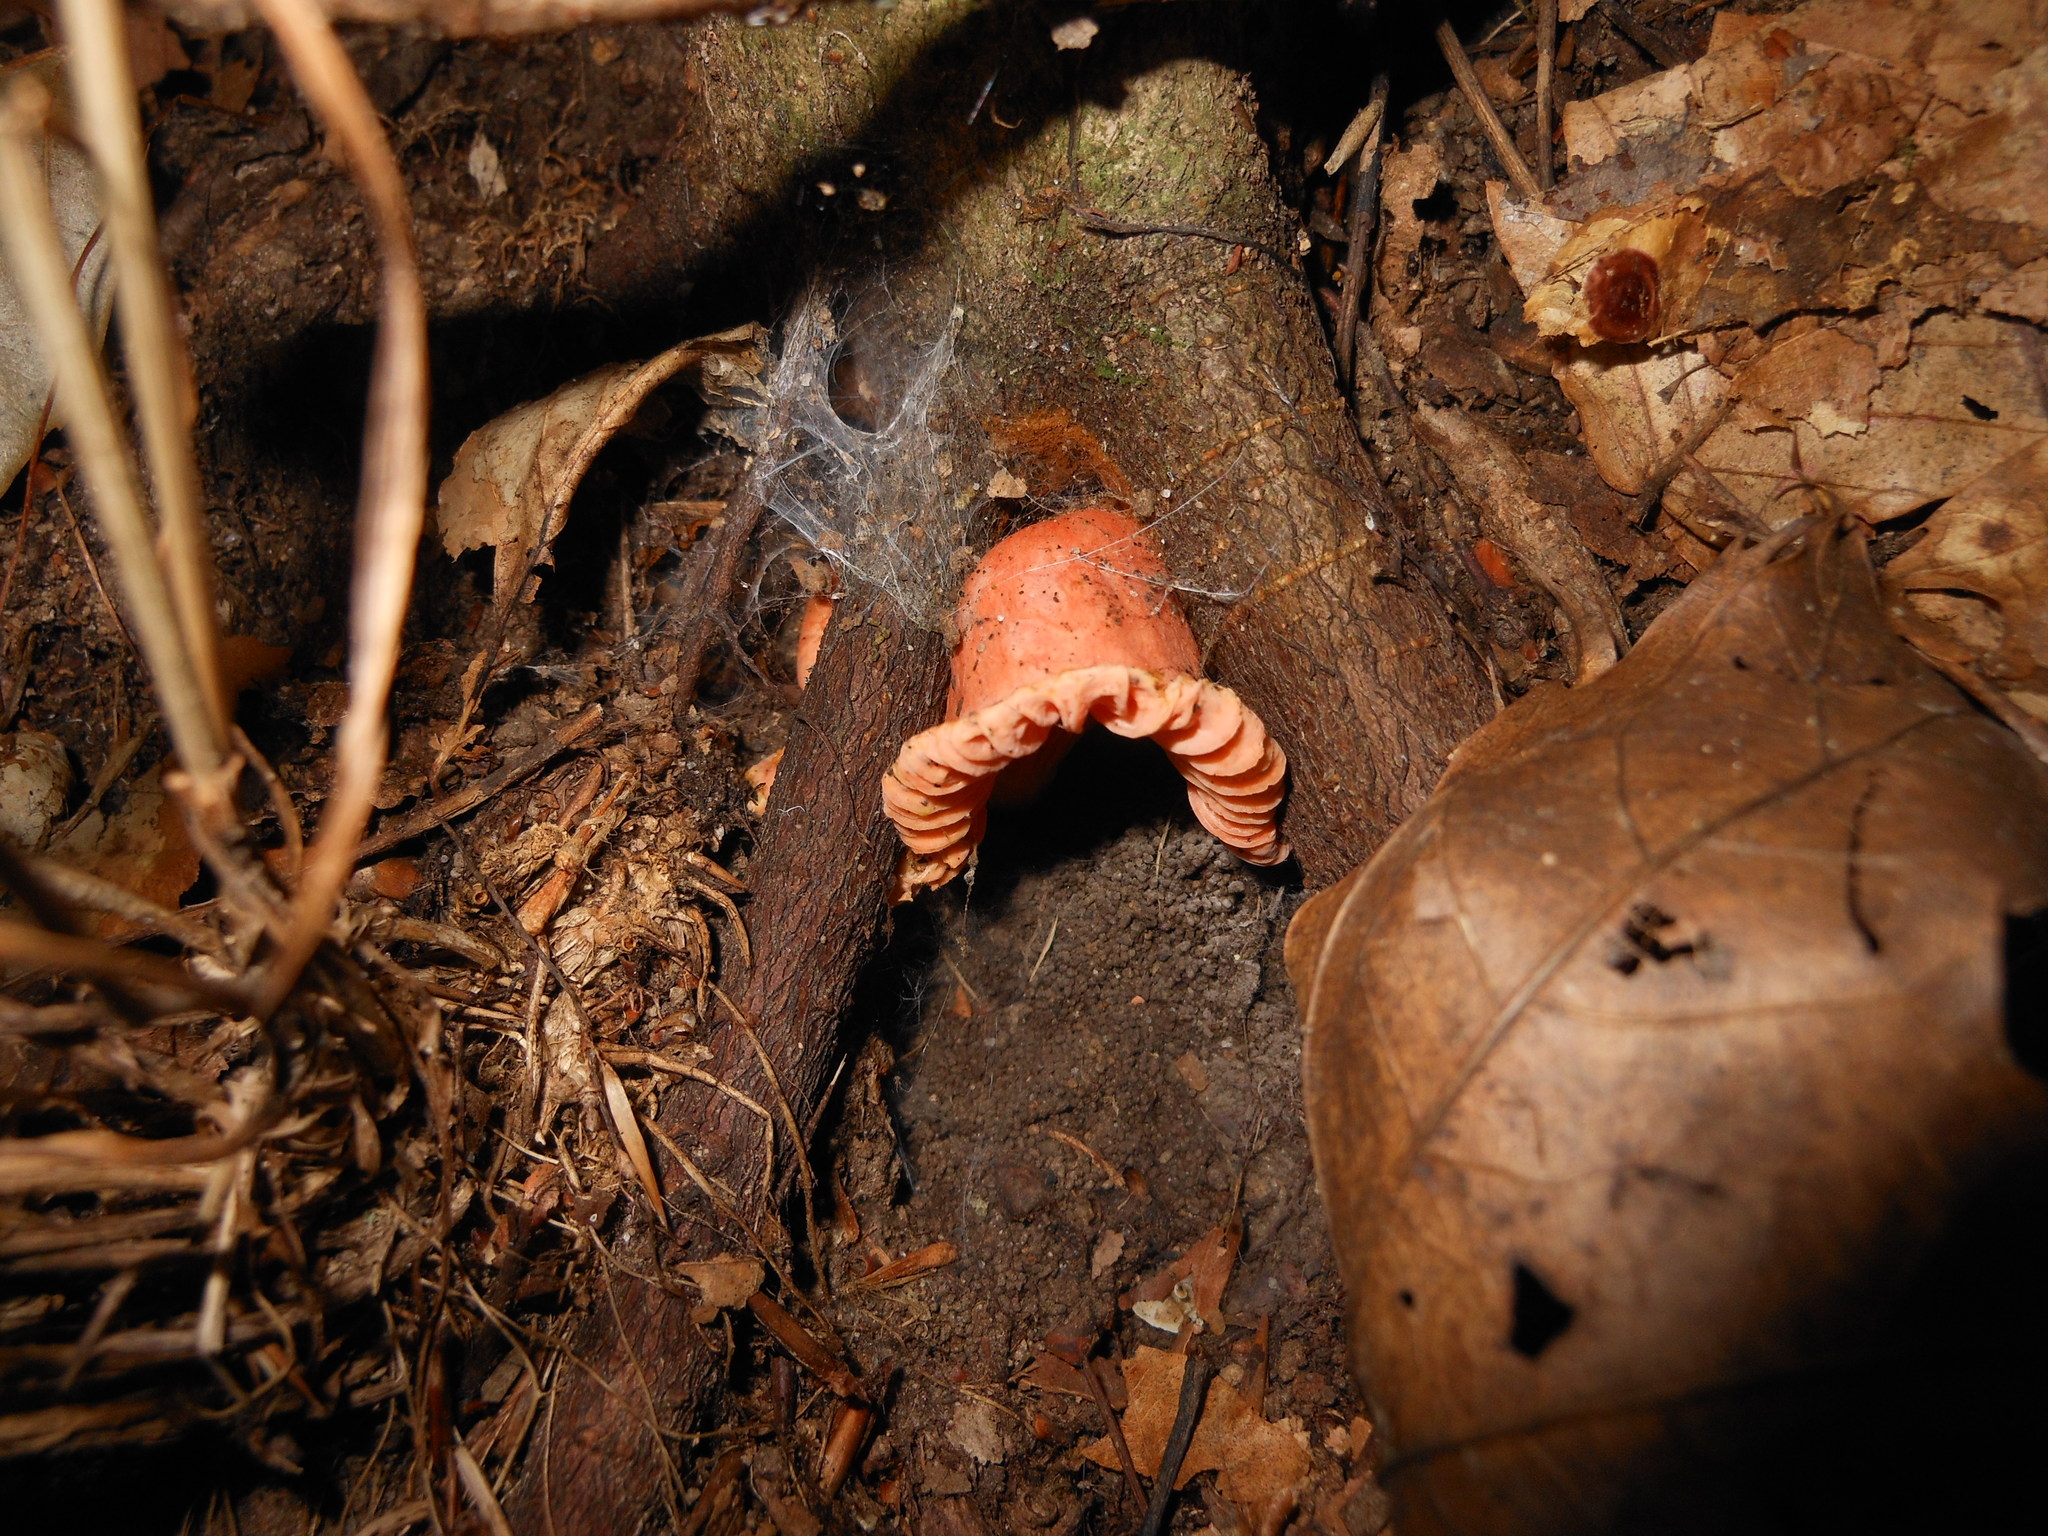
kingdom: Fungi
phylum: Basidiomycota
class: Agaricomycetes
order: Cantharellales
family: Hydnaceae
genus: Cantharellus
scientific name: Cantharellus cinnabarinus
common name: Cinnabar chanterelle
